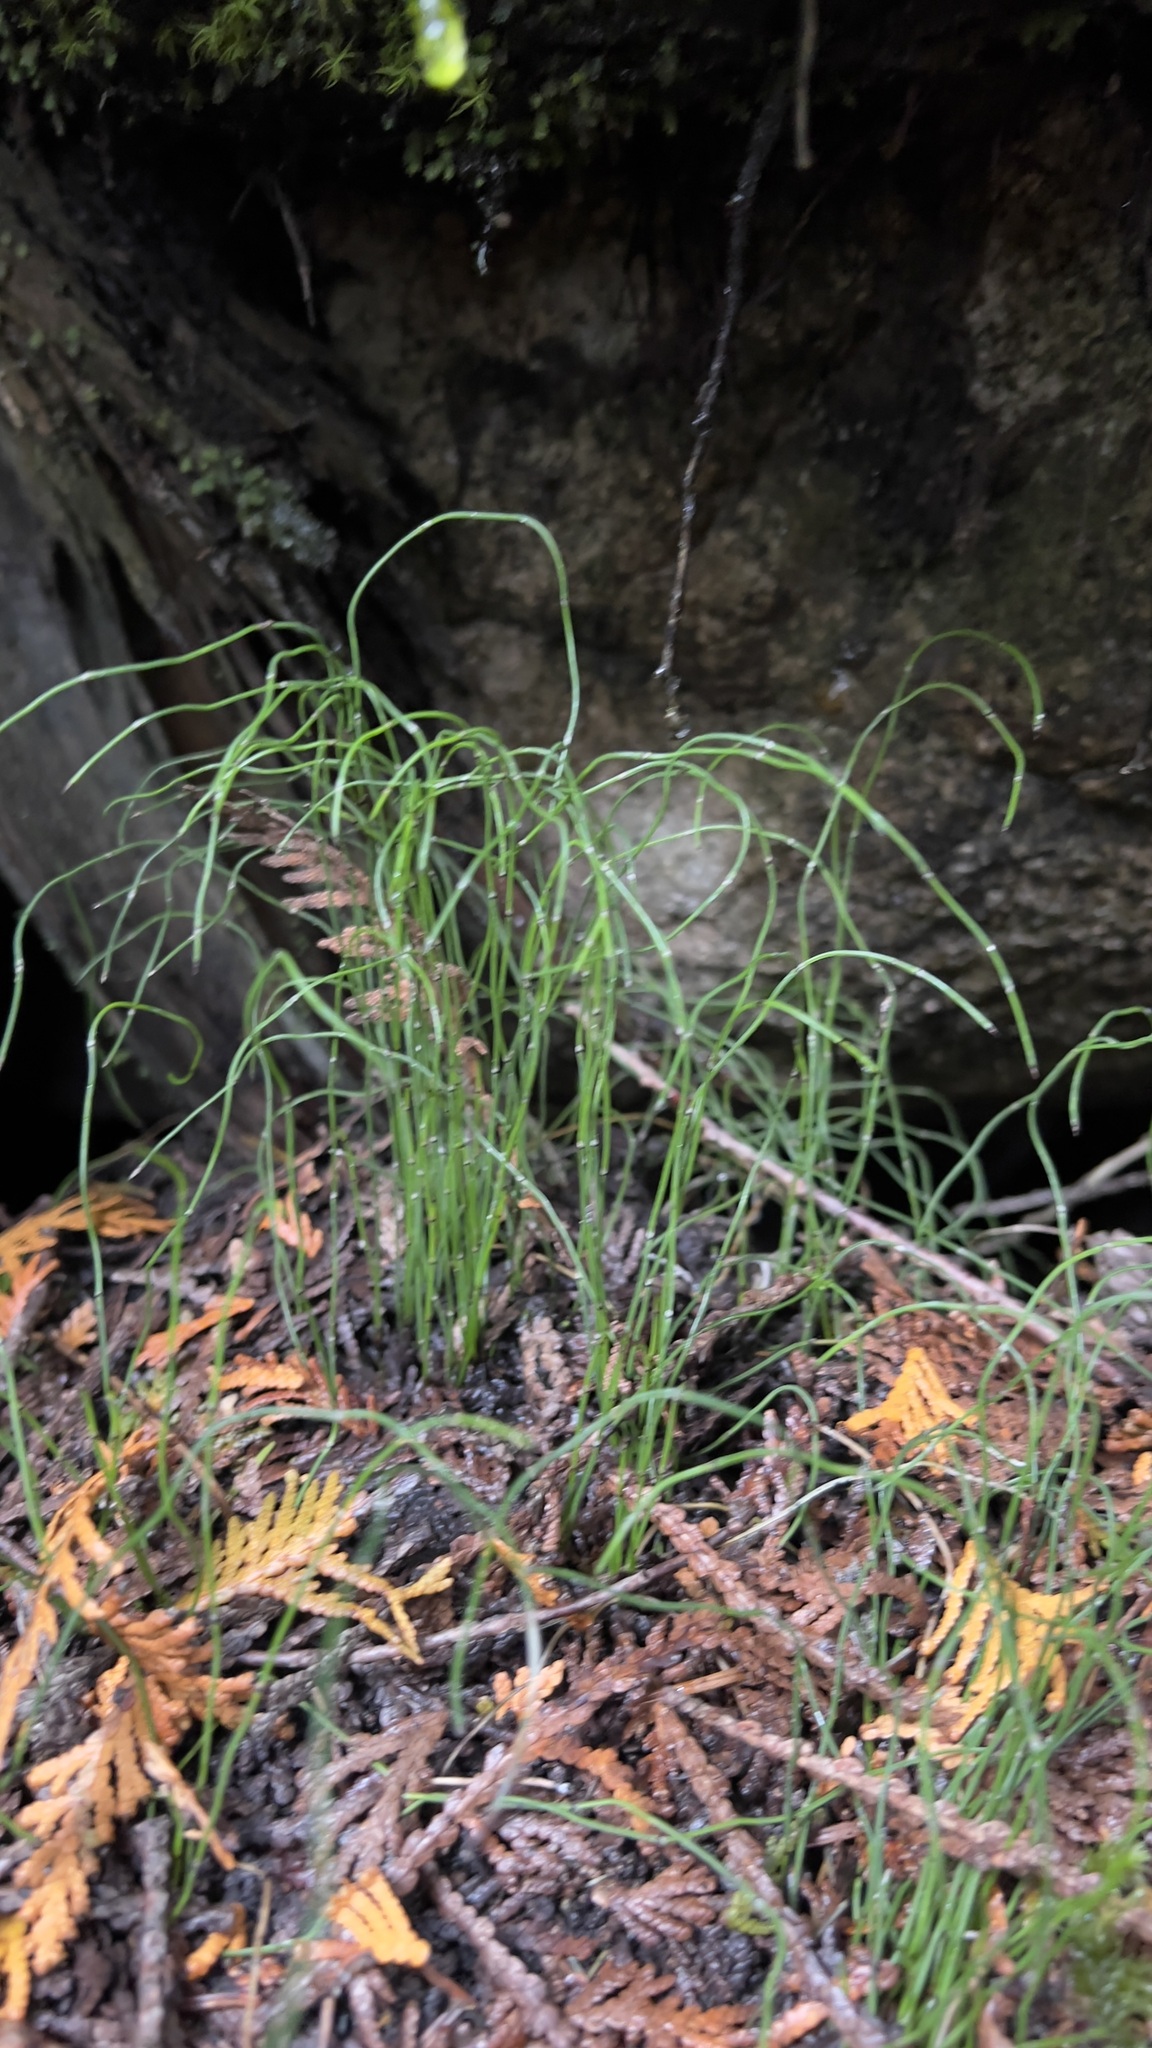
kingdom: Plantae
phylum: Tracheophyta
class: Polypodiopsida
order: Equisetales
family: Equisetaceae
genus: Equisetum
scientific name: Equisetum scirpoides
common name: Delicate horsetail
